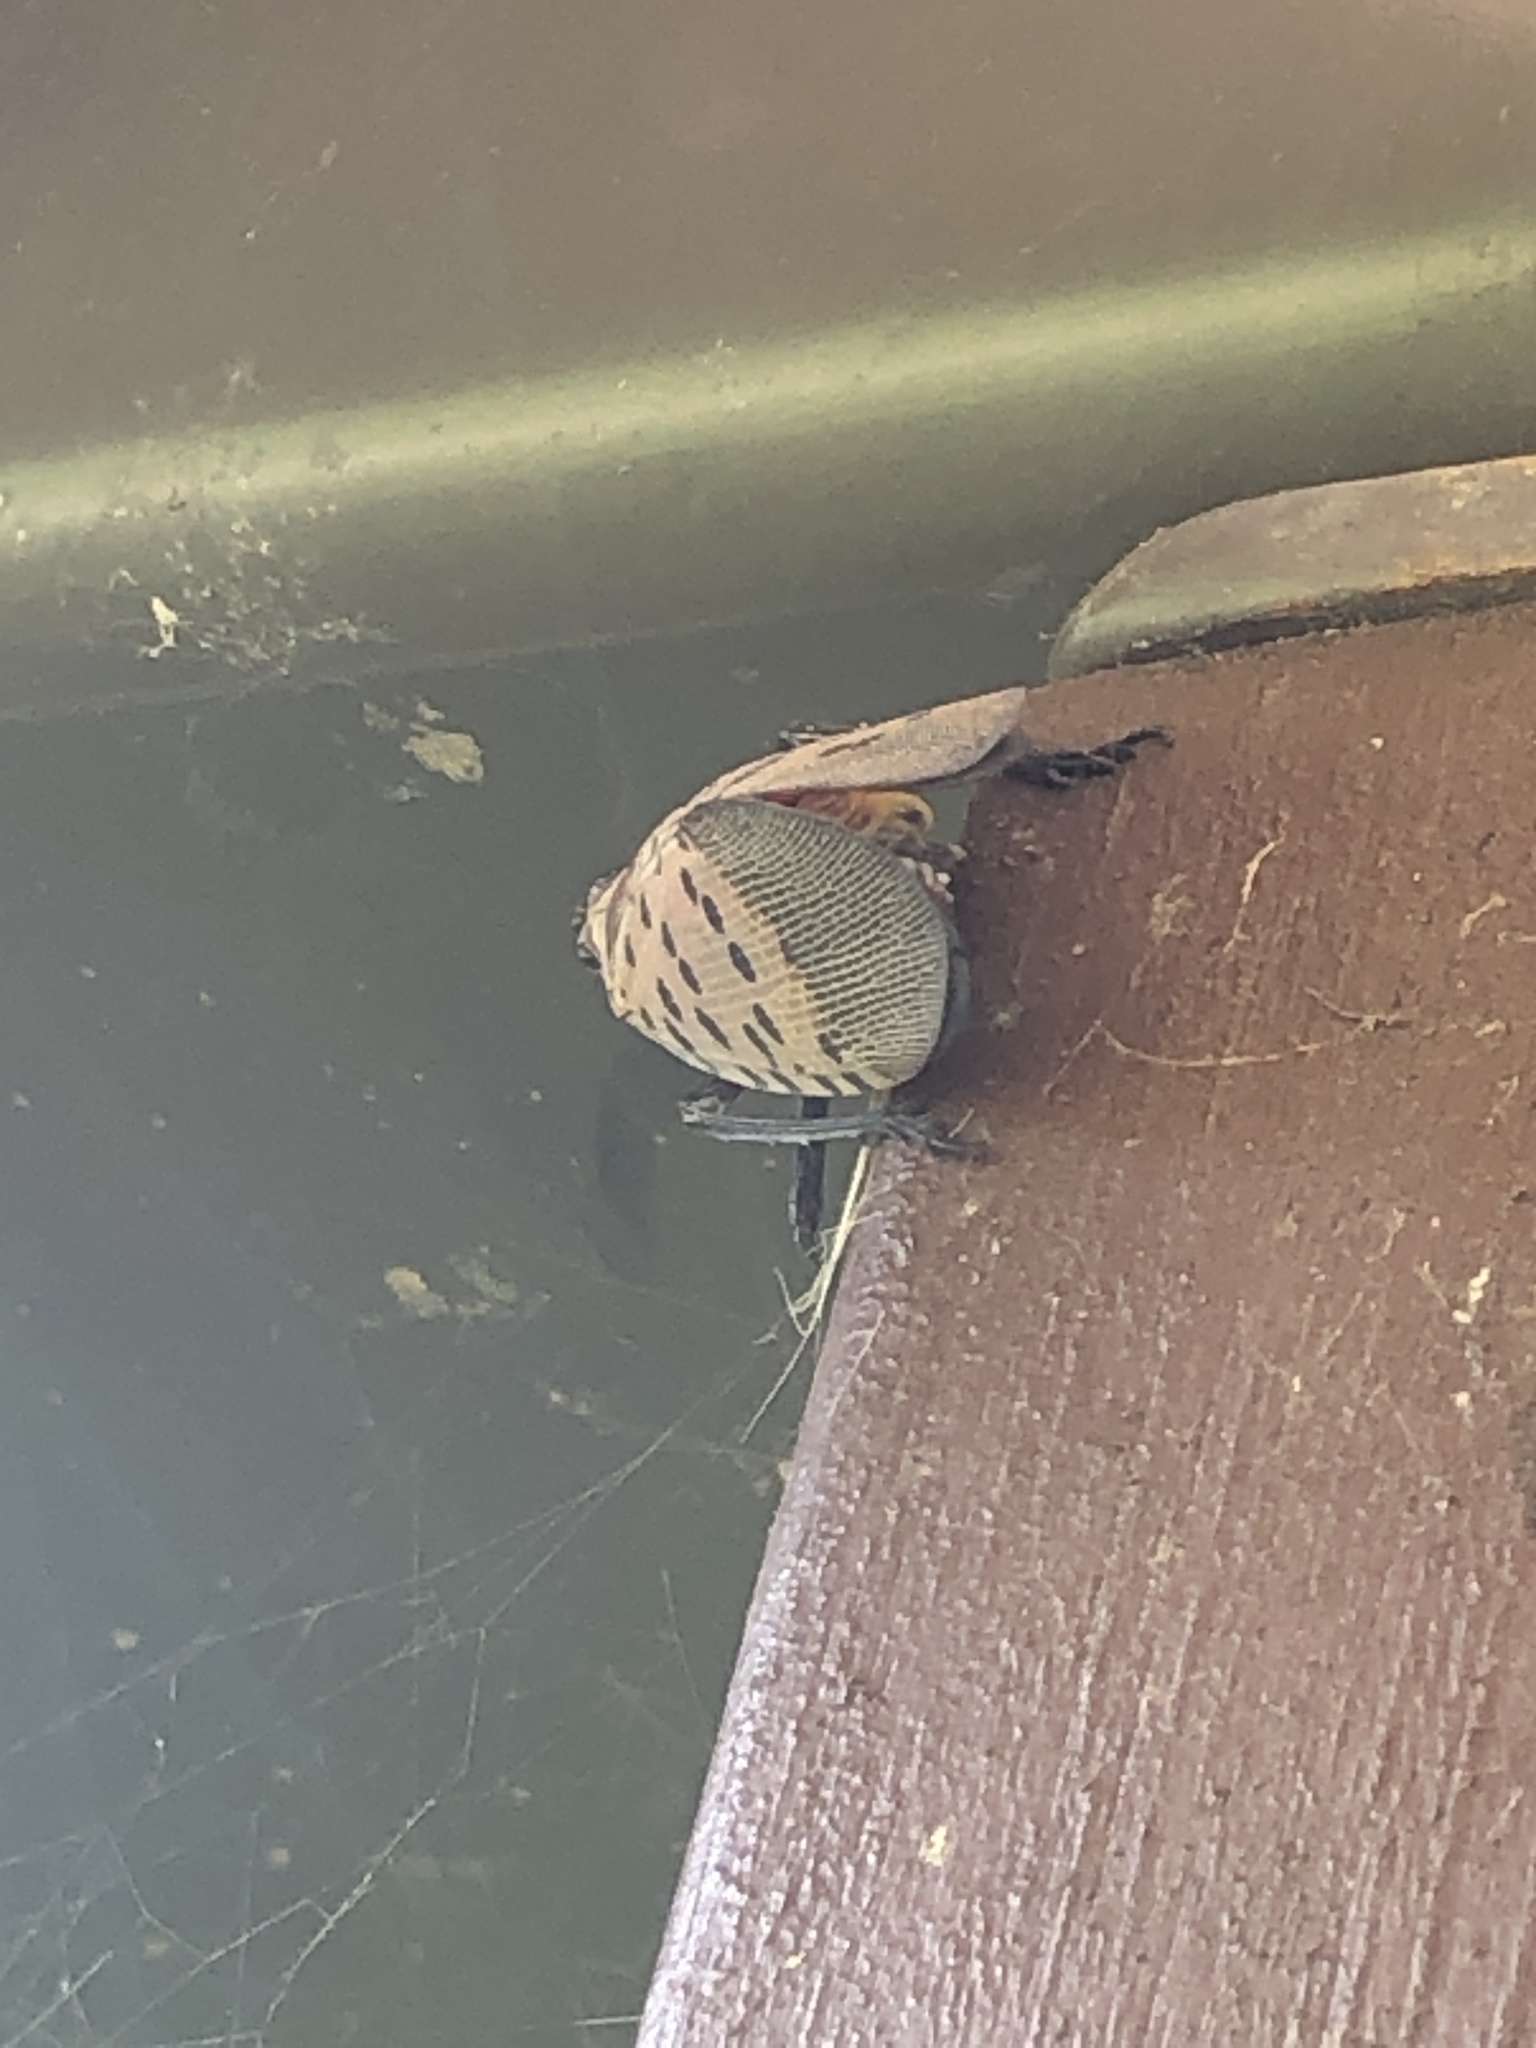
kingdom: Animalia
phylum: Arthropoda
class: Insecta
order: Hemiptera
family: Fulgoridae
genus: Lycorma
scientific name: Lycorma delicatula
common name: Spotted lanternfly
